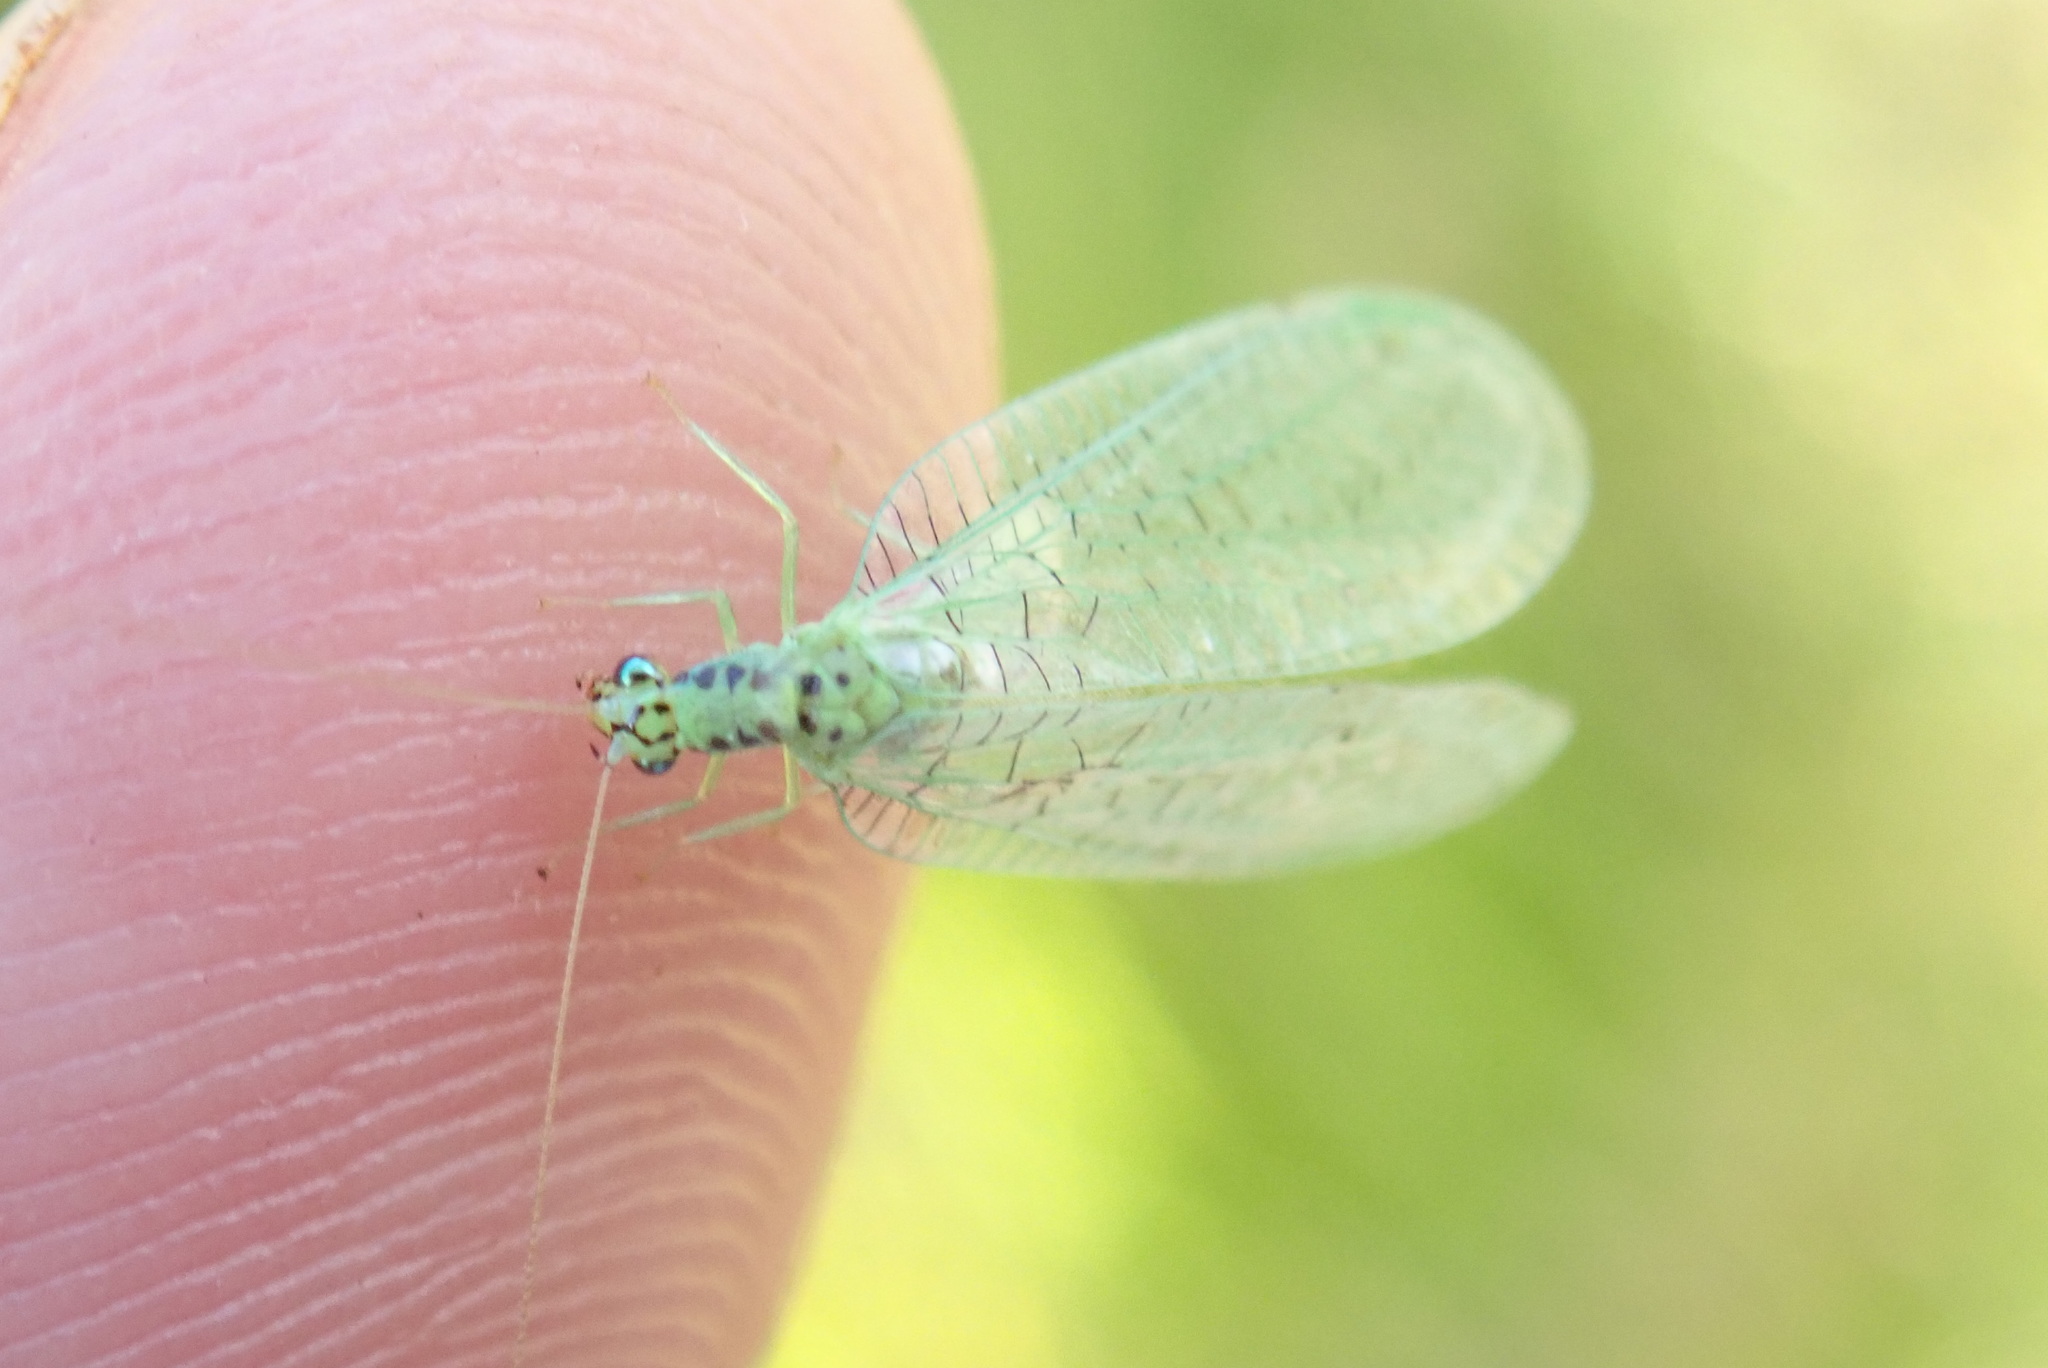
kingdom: Animalia
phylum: Arthropoda
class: Insecta
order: Neuroptera
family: Chrysopidae
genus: Chrysopa
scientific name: Chrysopa chi
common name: X-marked green lacewing
